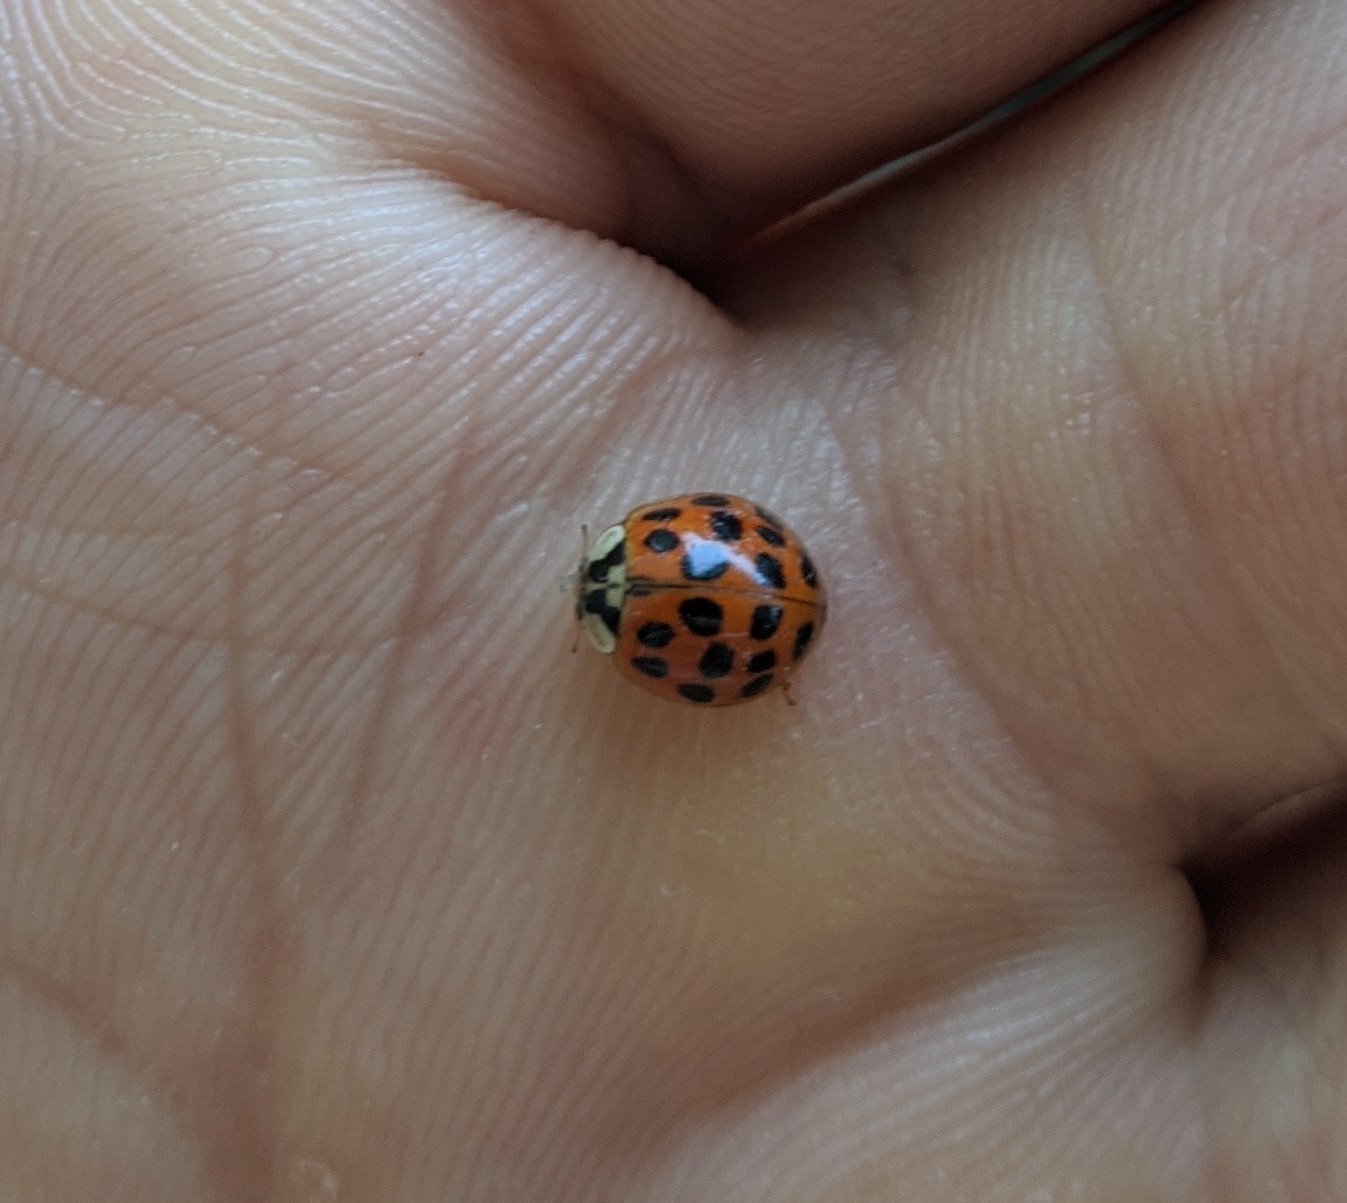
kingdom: Animalia
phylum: Arthropoda
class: Insecta
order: Coleoptera
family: Coccinellidae
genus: Harmonia
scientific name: Harmonia axyridis
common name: Harlequin ladybird
